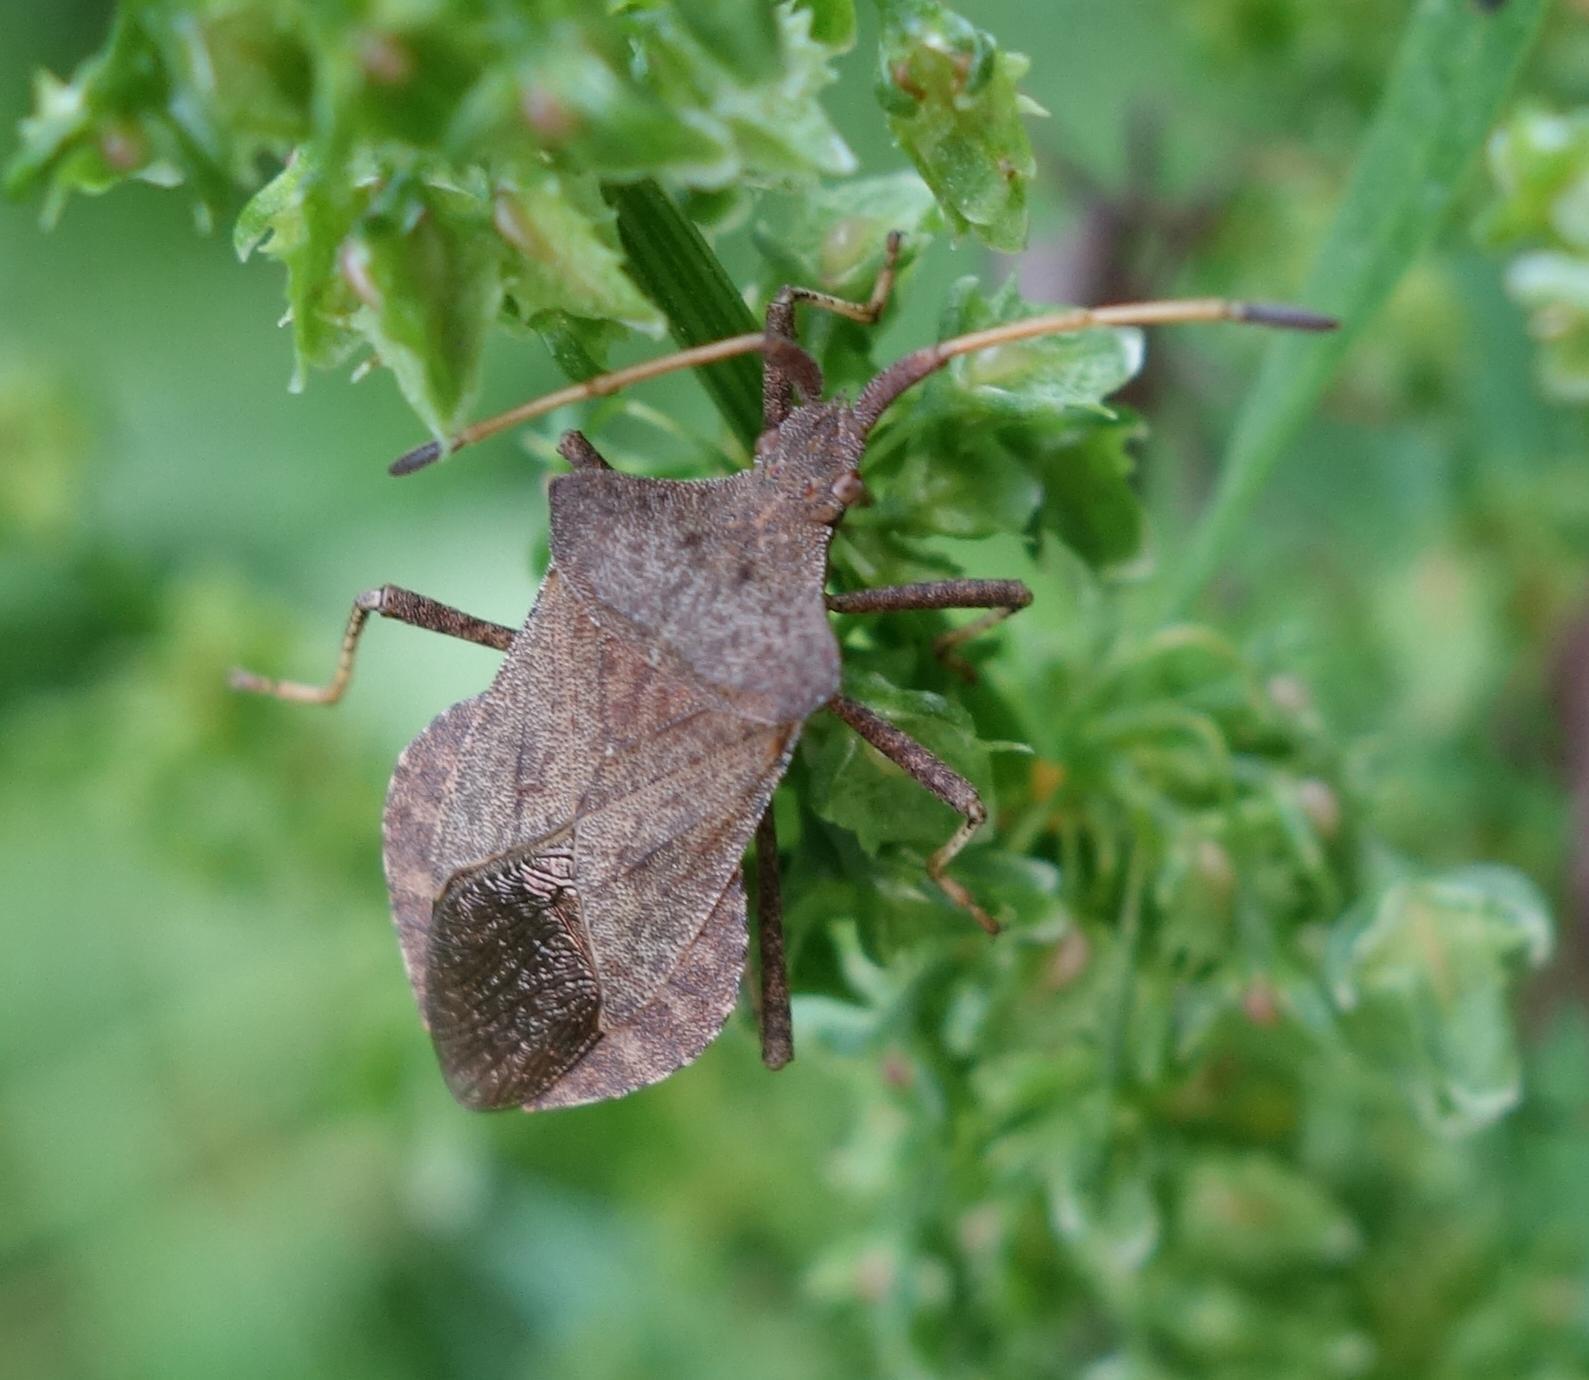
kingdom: Animalia
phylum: Arthropoda
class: Insecta
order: Hemiptera
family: Coreidae
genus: Coreus
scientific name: Coreus marginatus
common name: Dock bug
